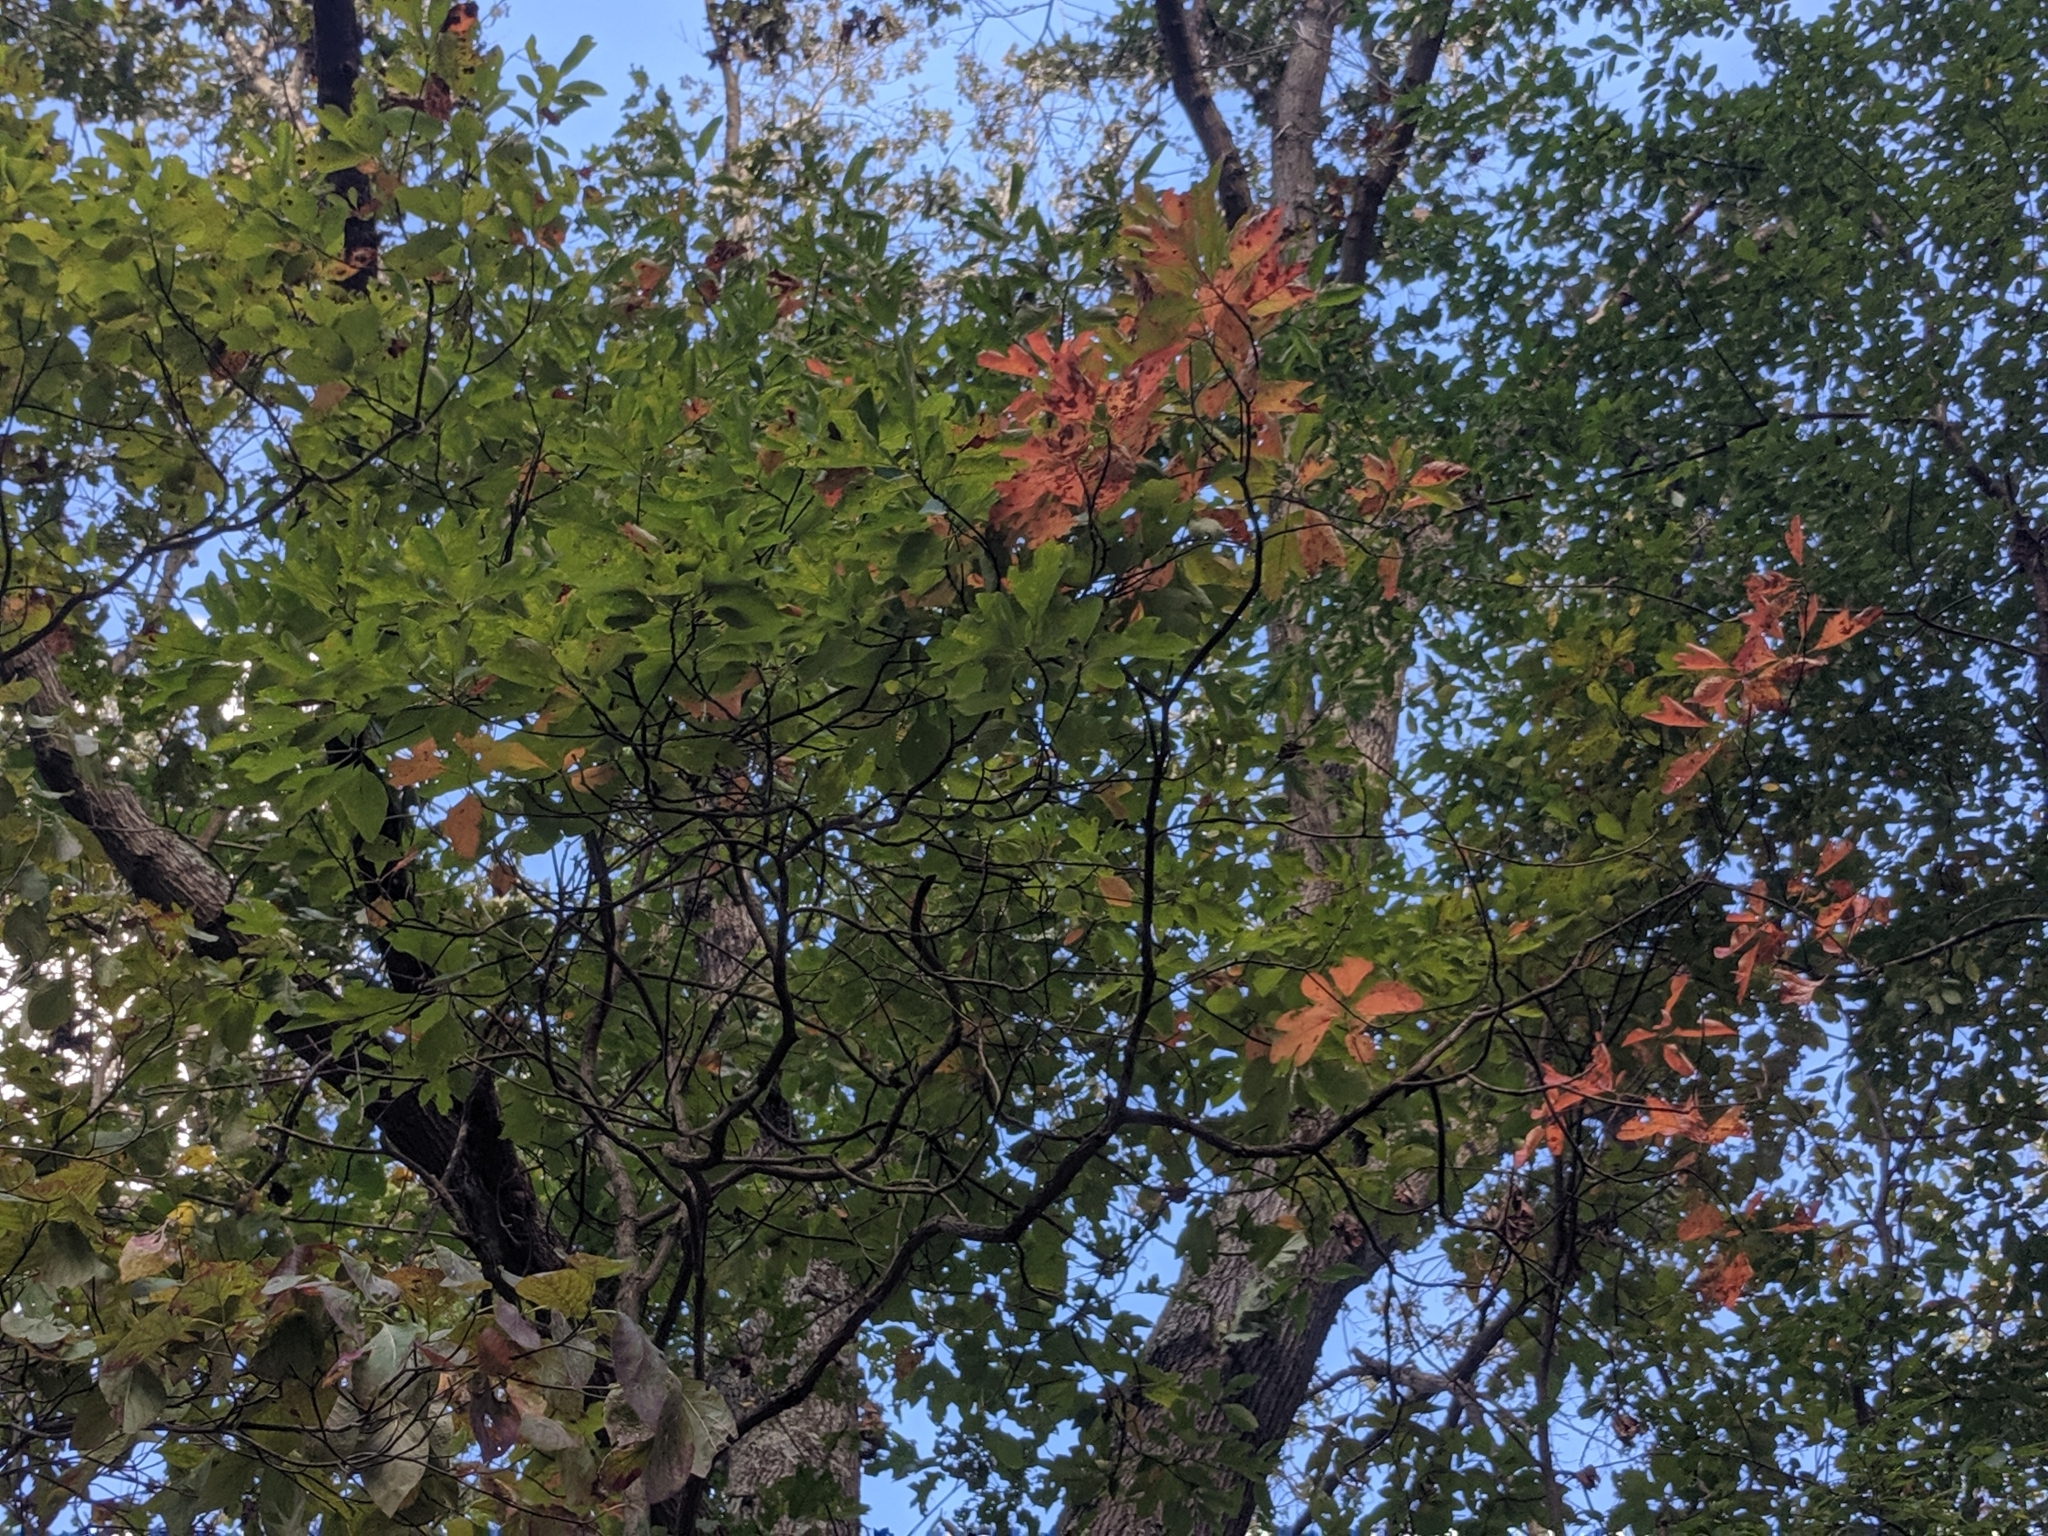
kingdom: Plantae
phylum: Tracheophyta
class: Magnoliopsida
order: Laurales
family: Lauraceae
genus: Sassafras
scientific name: Sassafras albidum
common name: Sassafras
